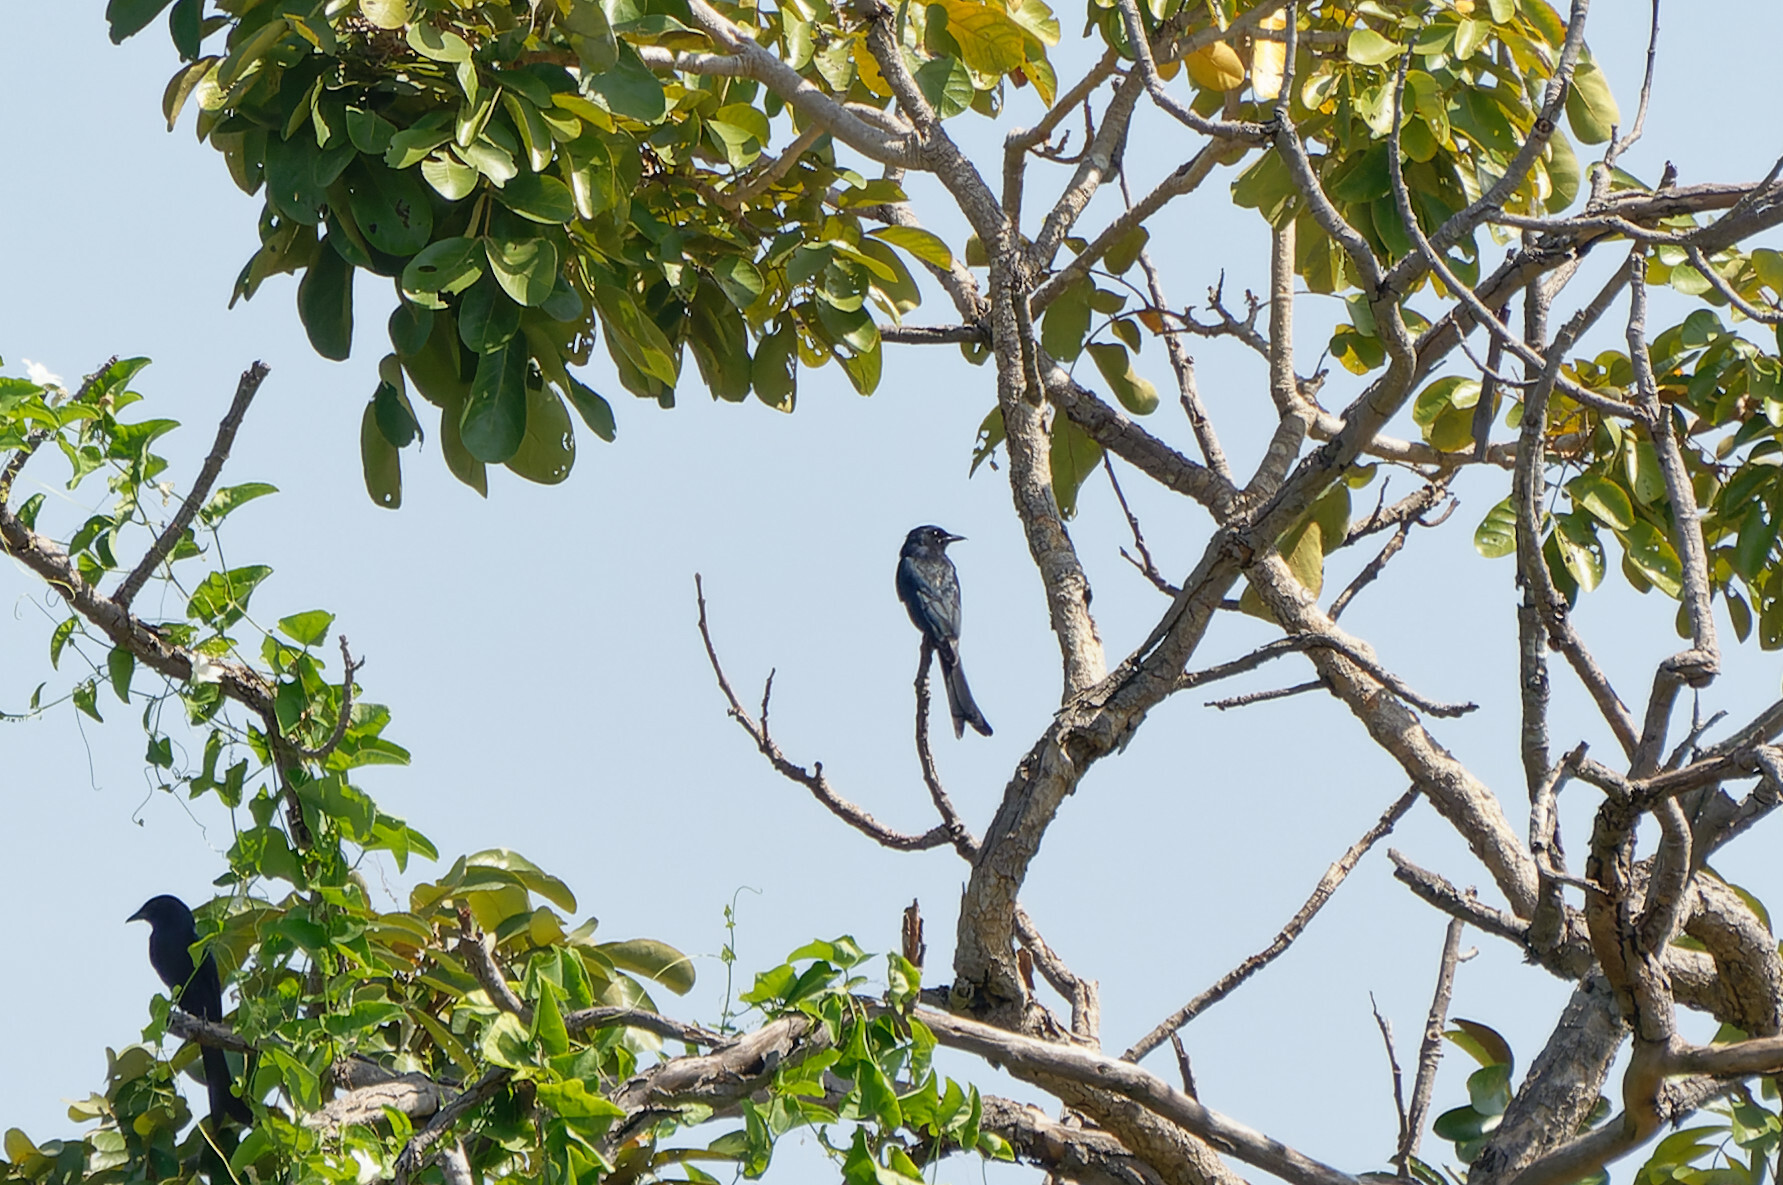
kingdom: Animalia
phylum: Chordata
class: Aves
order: Passeriformes
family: Dicruridae
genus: Dicrurus
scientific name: Dicrurus macrocercus
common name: Black drongo
